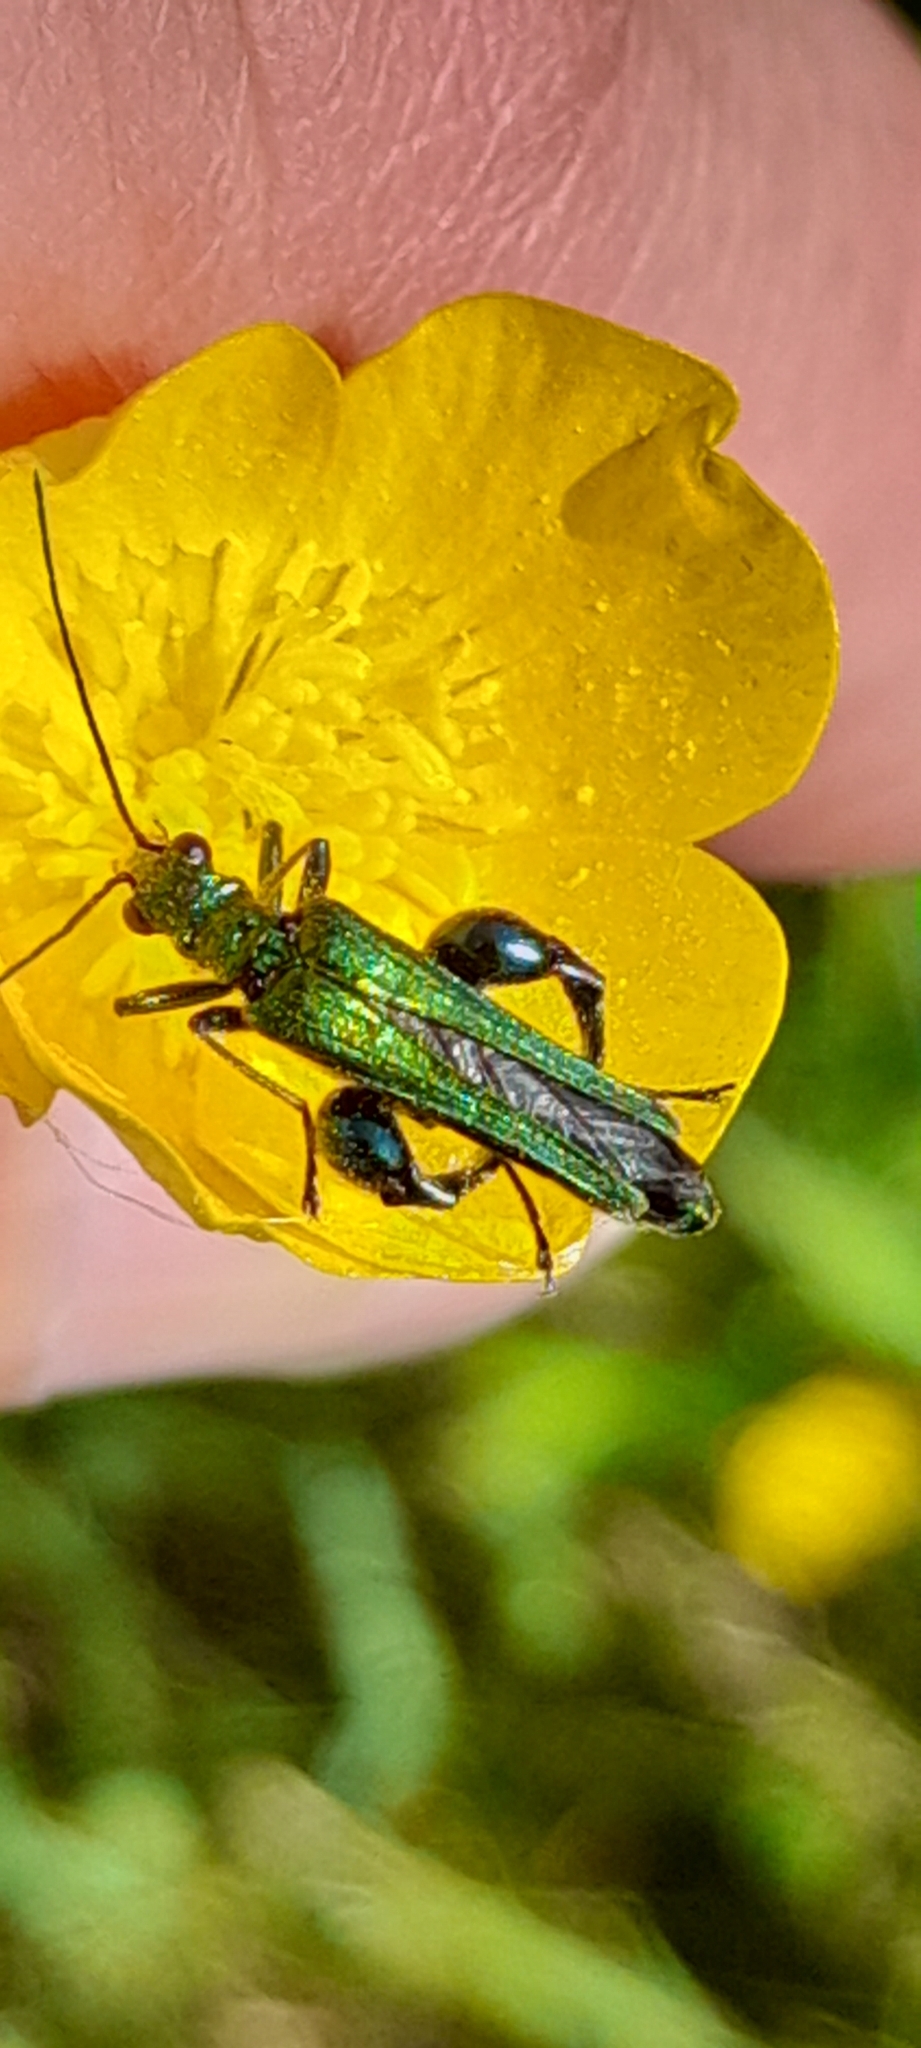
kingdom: Animalia
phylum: Arthropoda
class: Insecta
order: Coleoptera
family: Oedemeridae
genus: Oedemera
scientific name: Oedemera nobilis
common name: Swollen-thighed beetle
